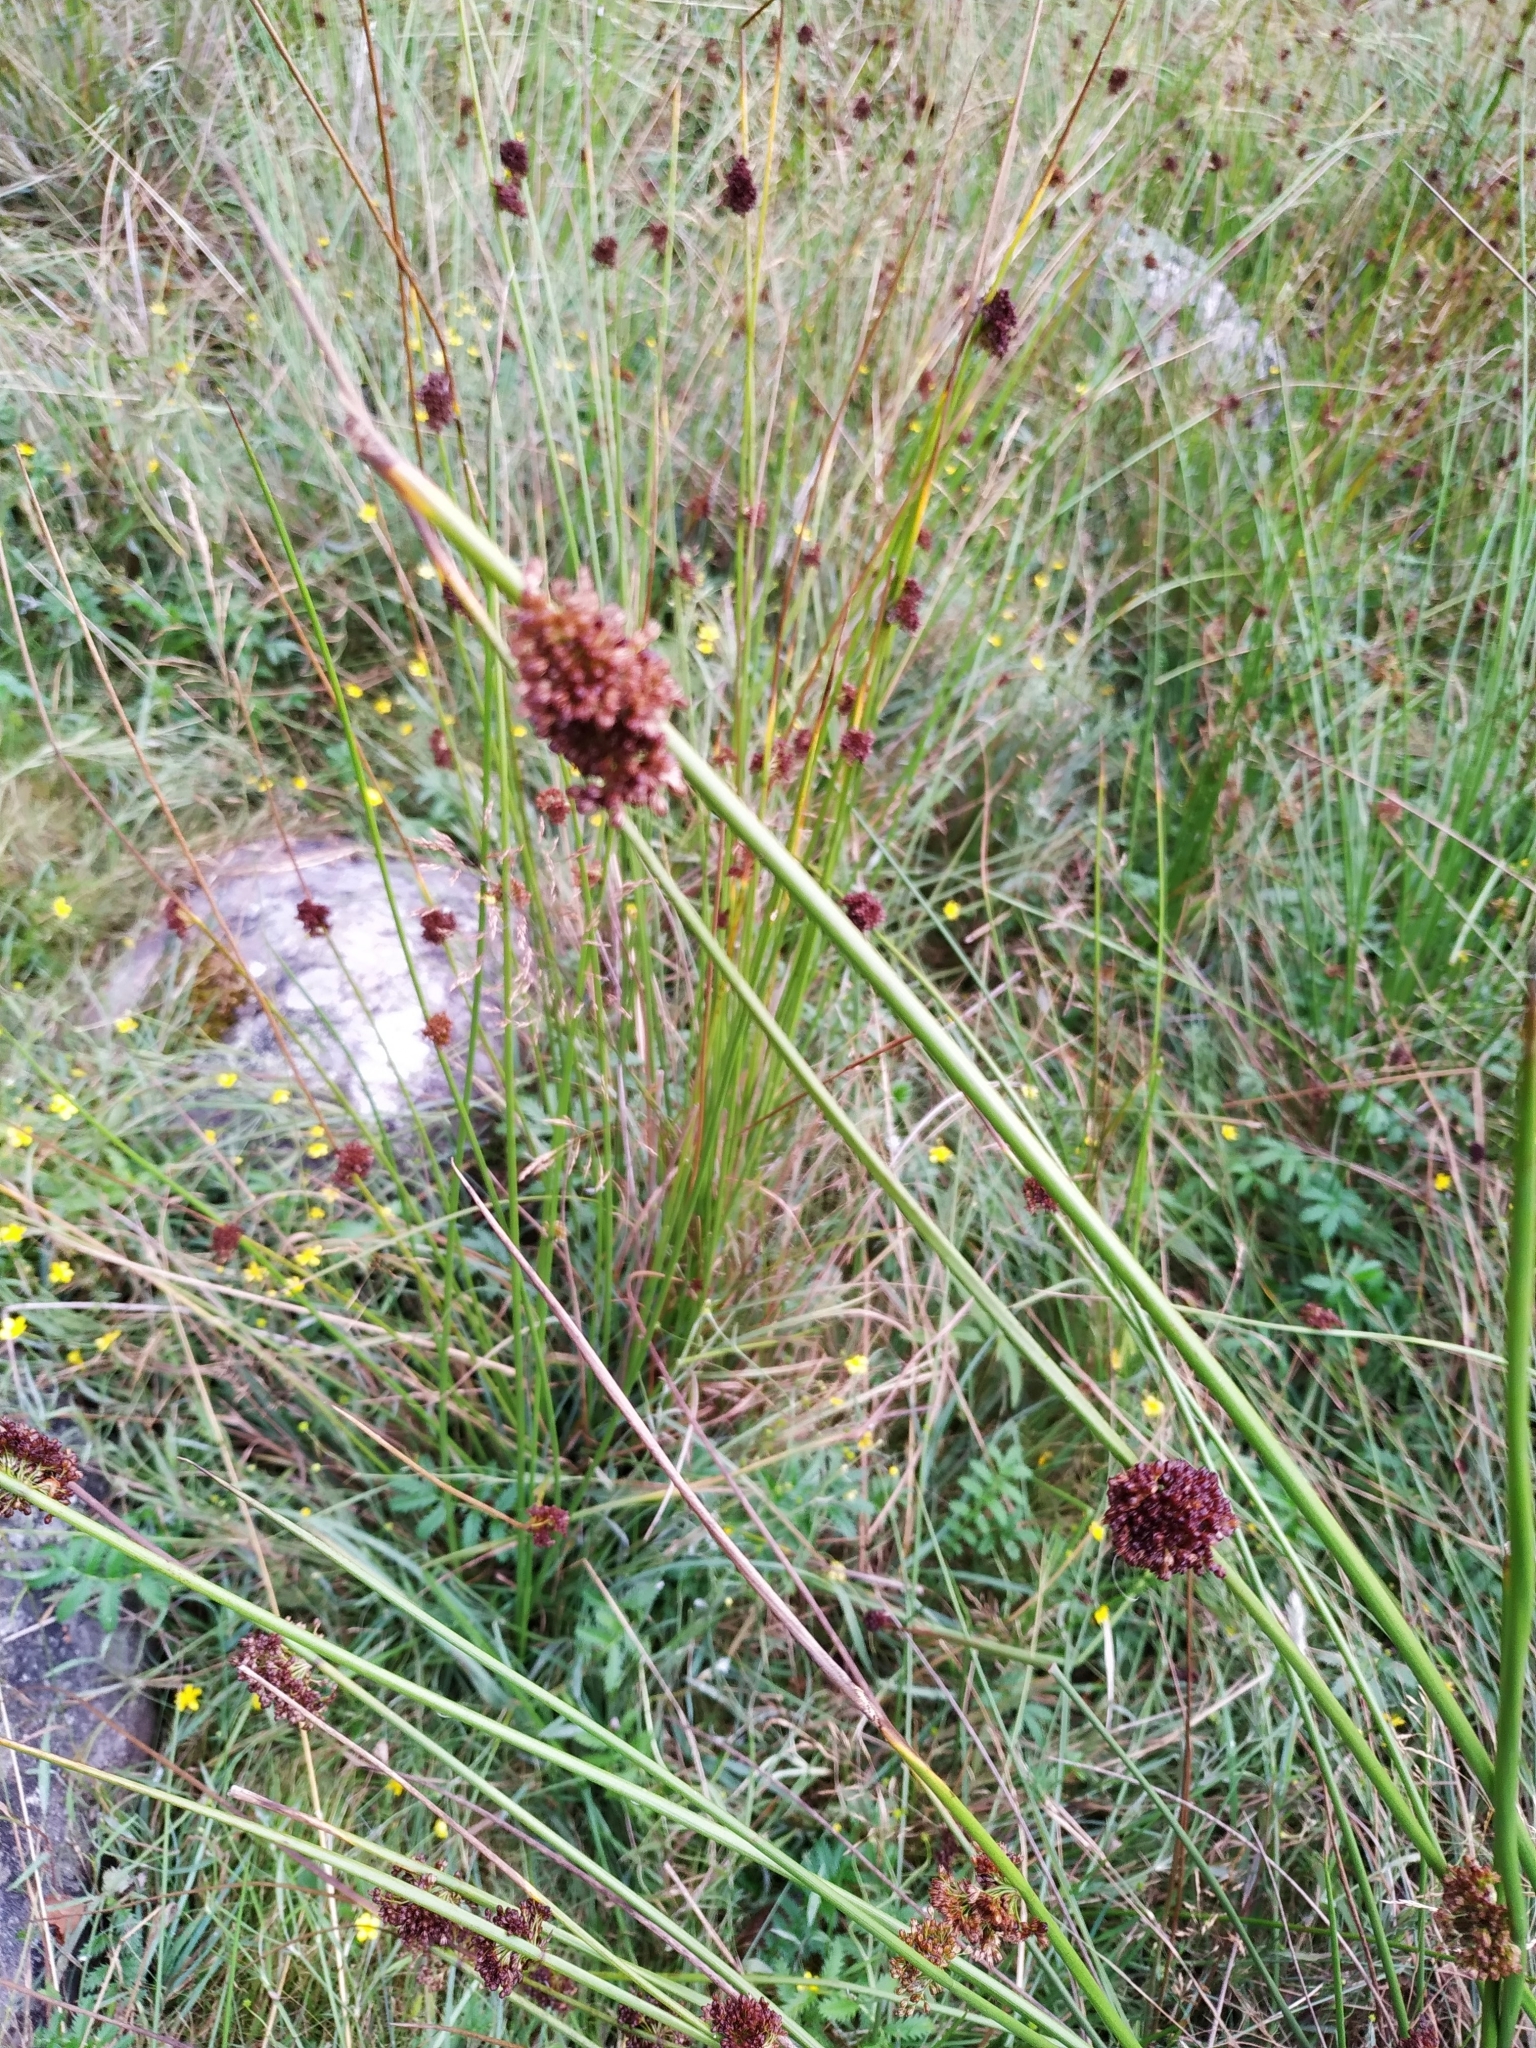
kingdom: Plantae
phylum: Tracheophyta
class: Liliopsida
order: Poales
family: Juncaceae
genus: Juncus
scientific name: Juncus effusus
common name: Soft rush
